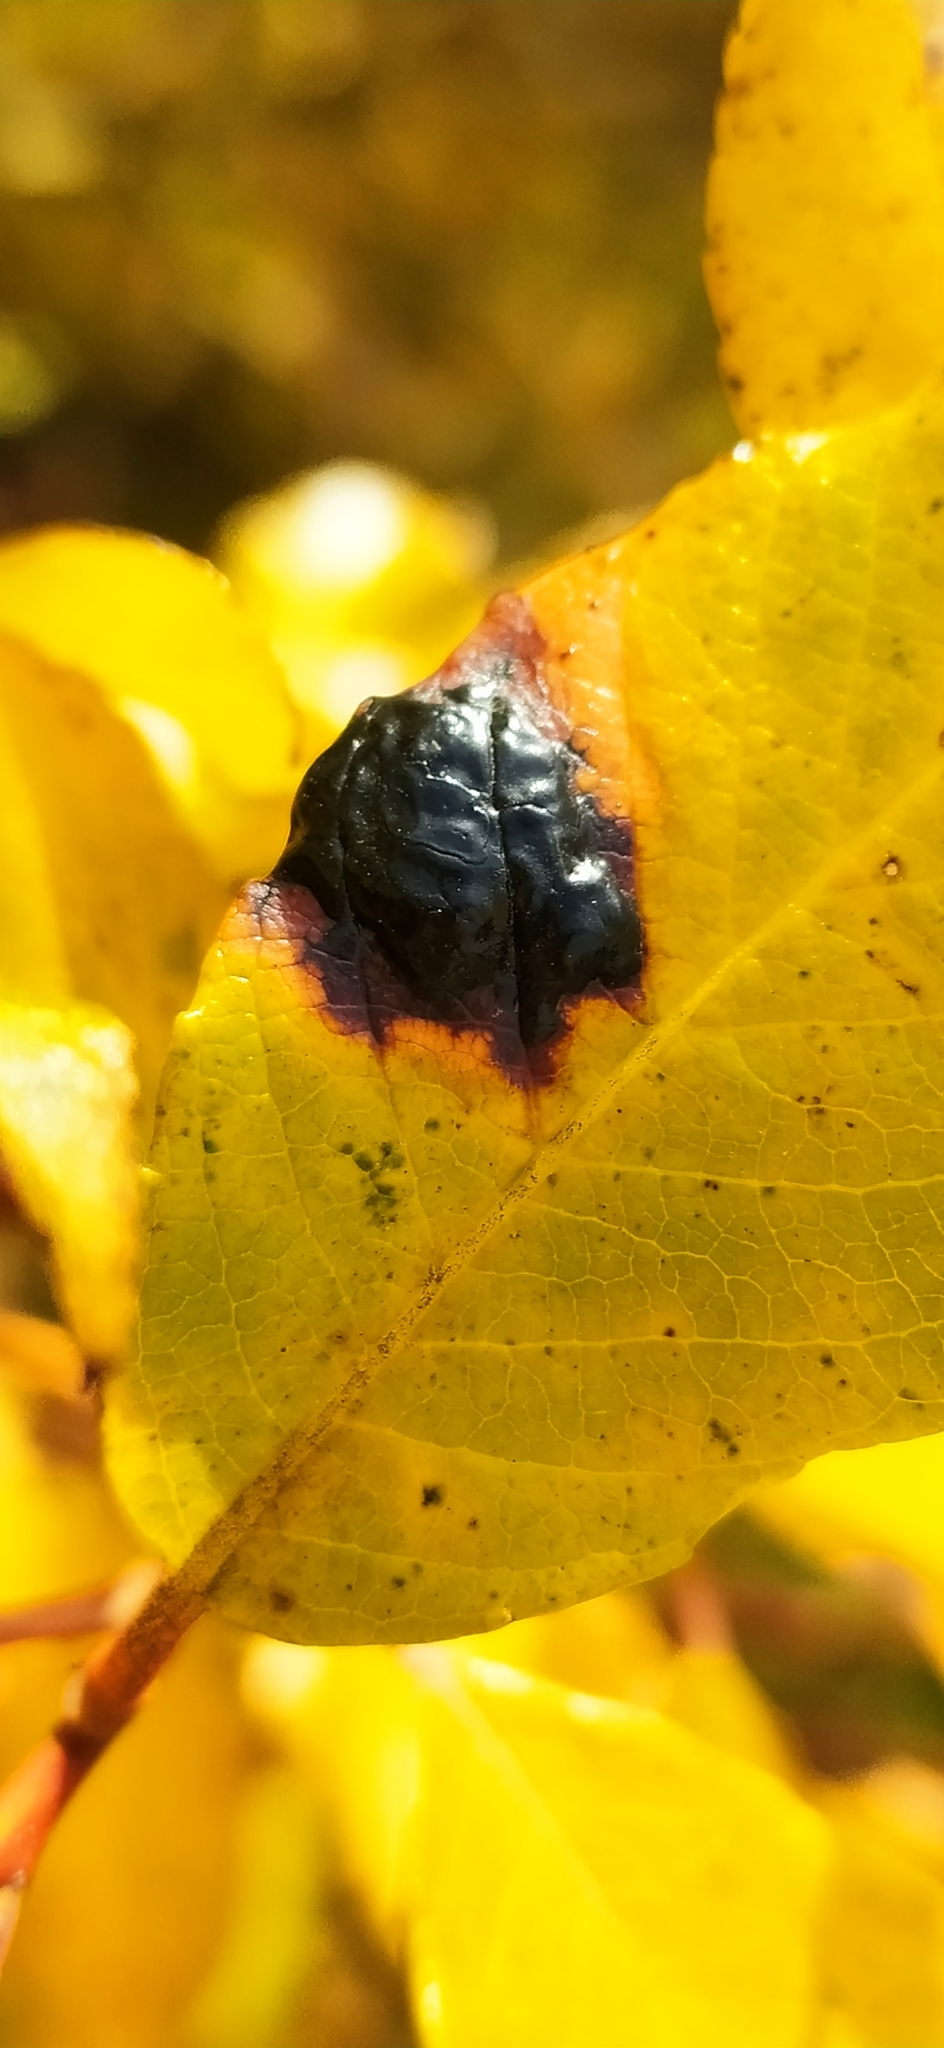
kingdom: Fungi
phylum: Ascomycota
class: Leotiomycetes
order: Rhytismatales
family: Rhytismataceae
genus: Rhytisma
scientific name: Rhytisma salicinum
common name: Willow tarspot
